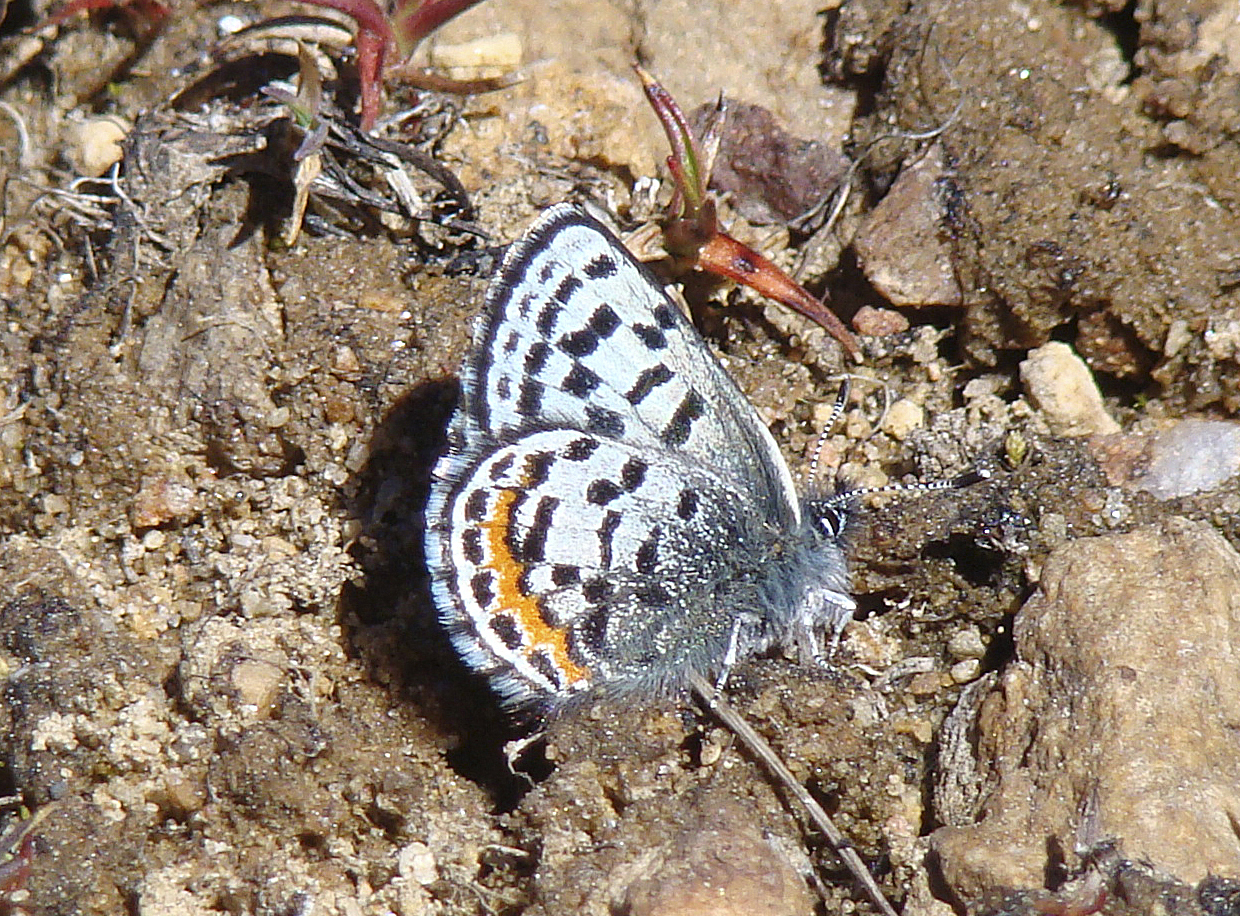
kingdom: Animalia
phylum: Arthropoda
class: Insecta
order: Lepidoptera
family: Lycaenidae
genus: Euphilotes
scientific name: Euphilotes battoides
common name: Square-spotted blue
